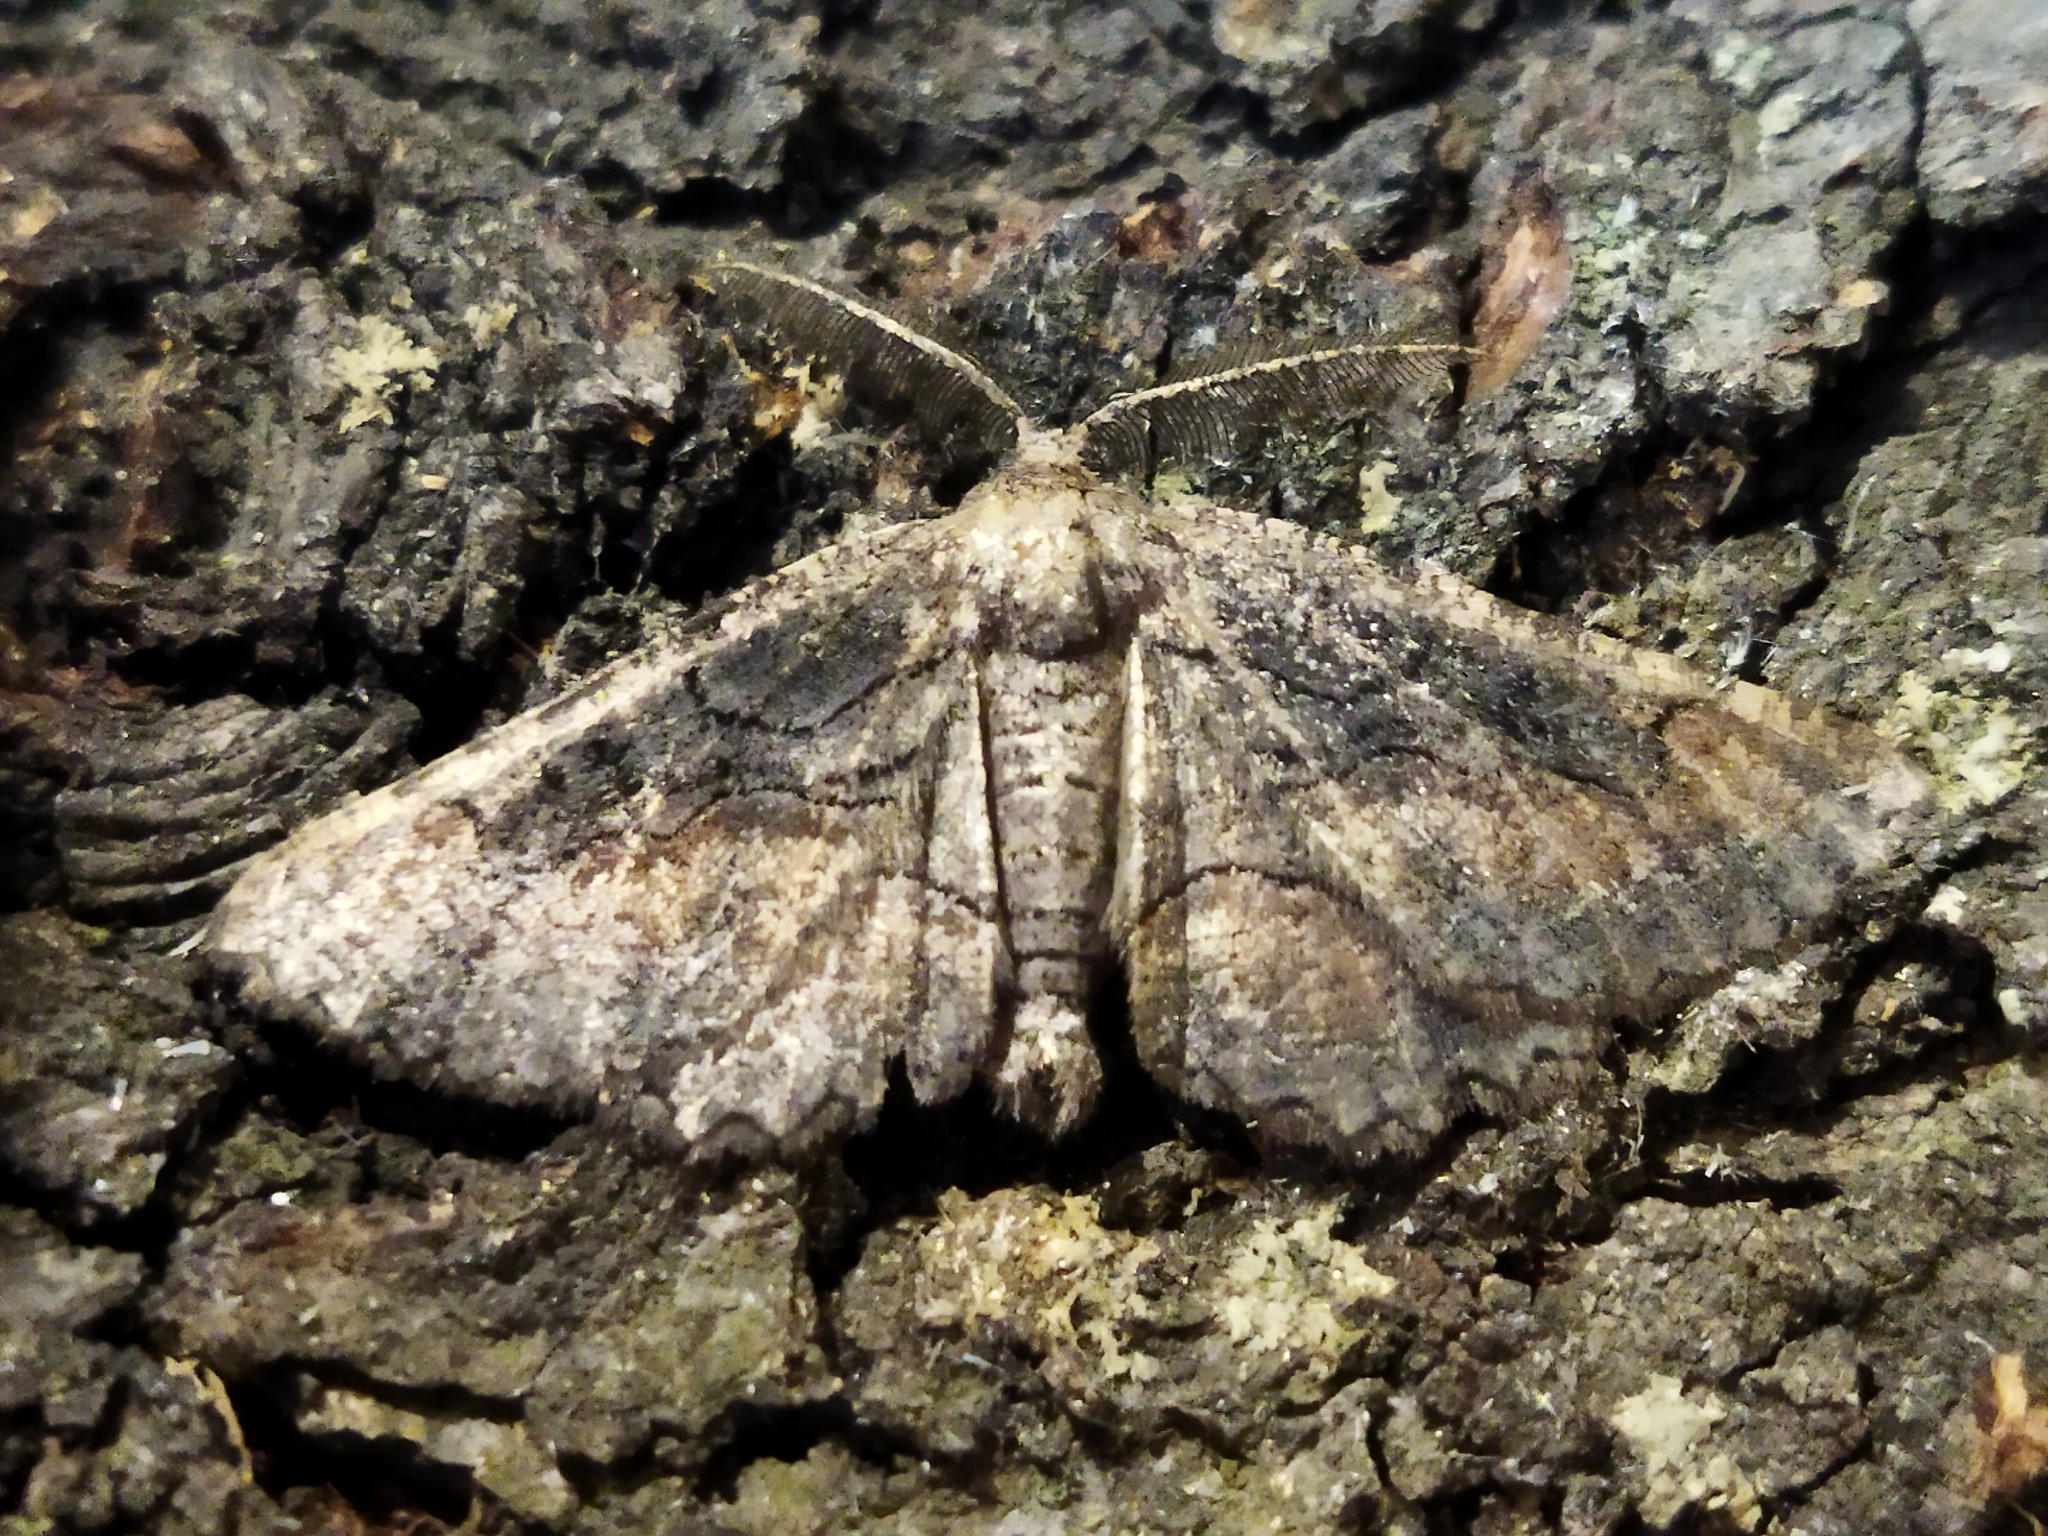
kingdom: Animalia
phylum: Arthropoda
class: Insecta
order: Lepidoptera
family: Geometridae
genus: Nychiodes
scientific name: Nychiodes waltheri
